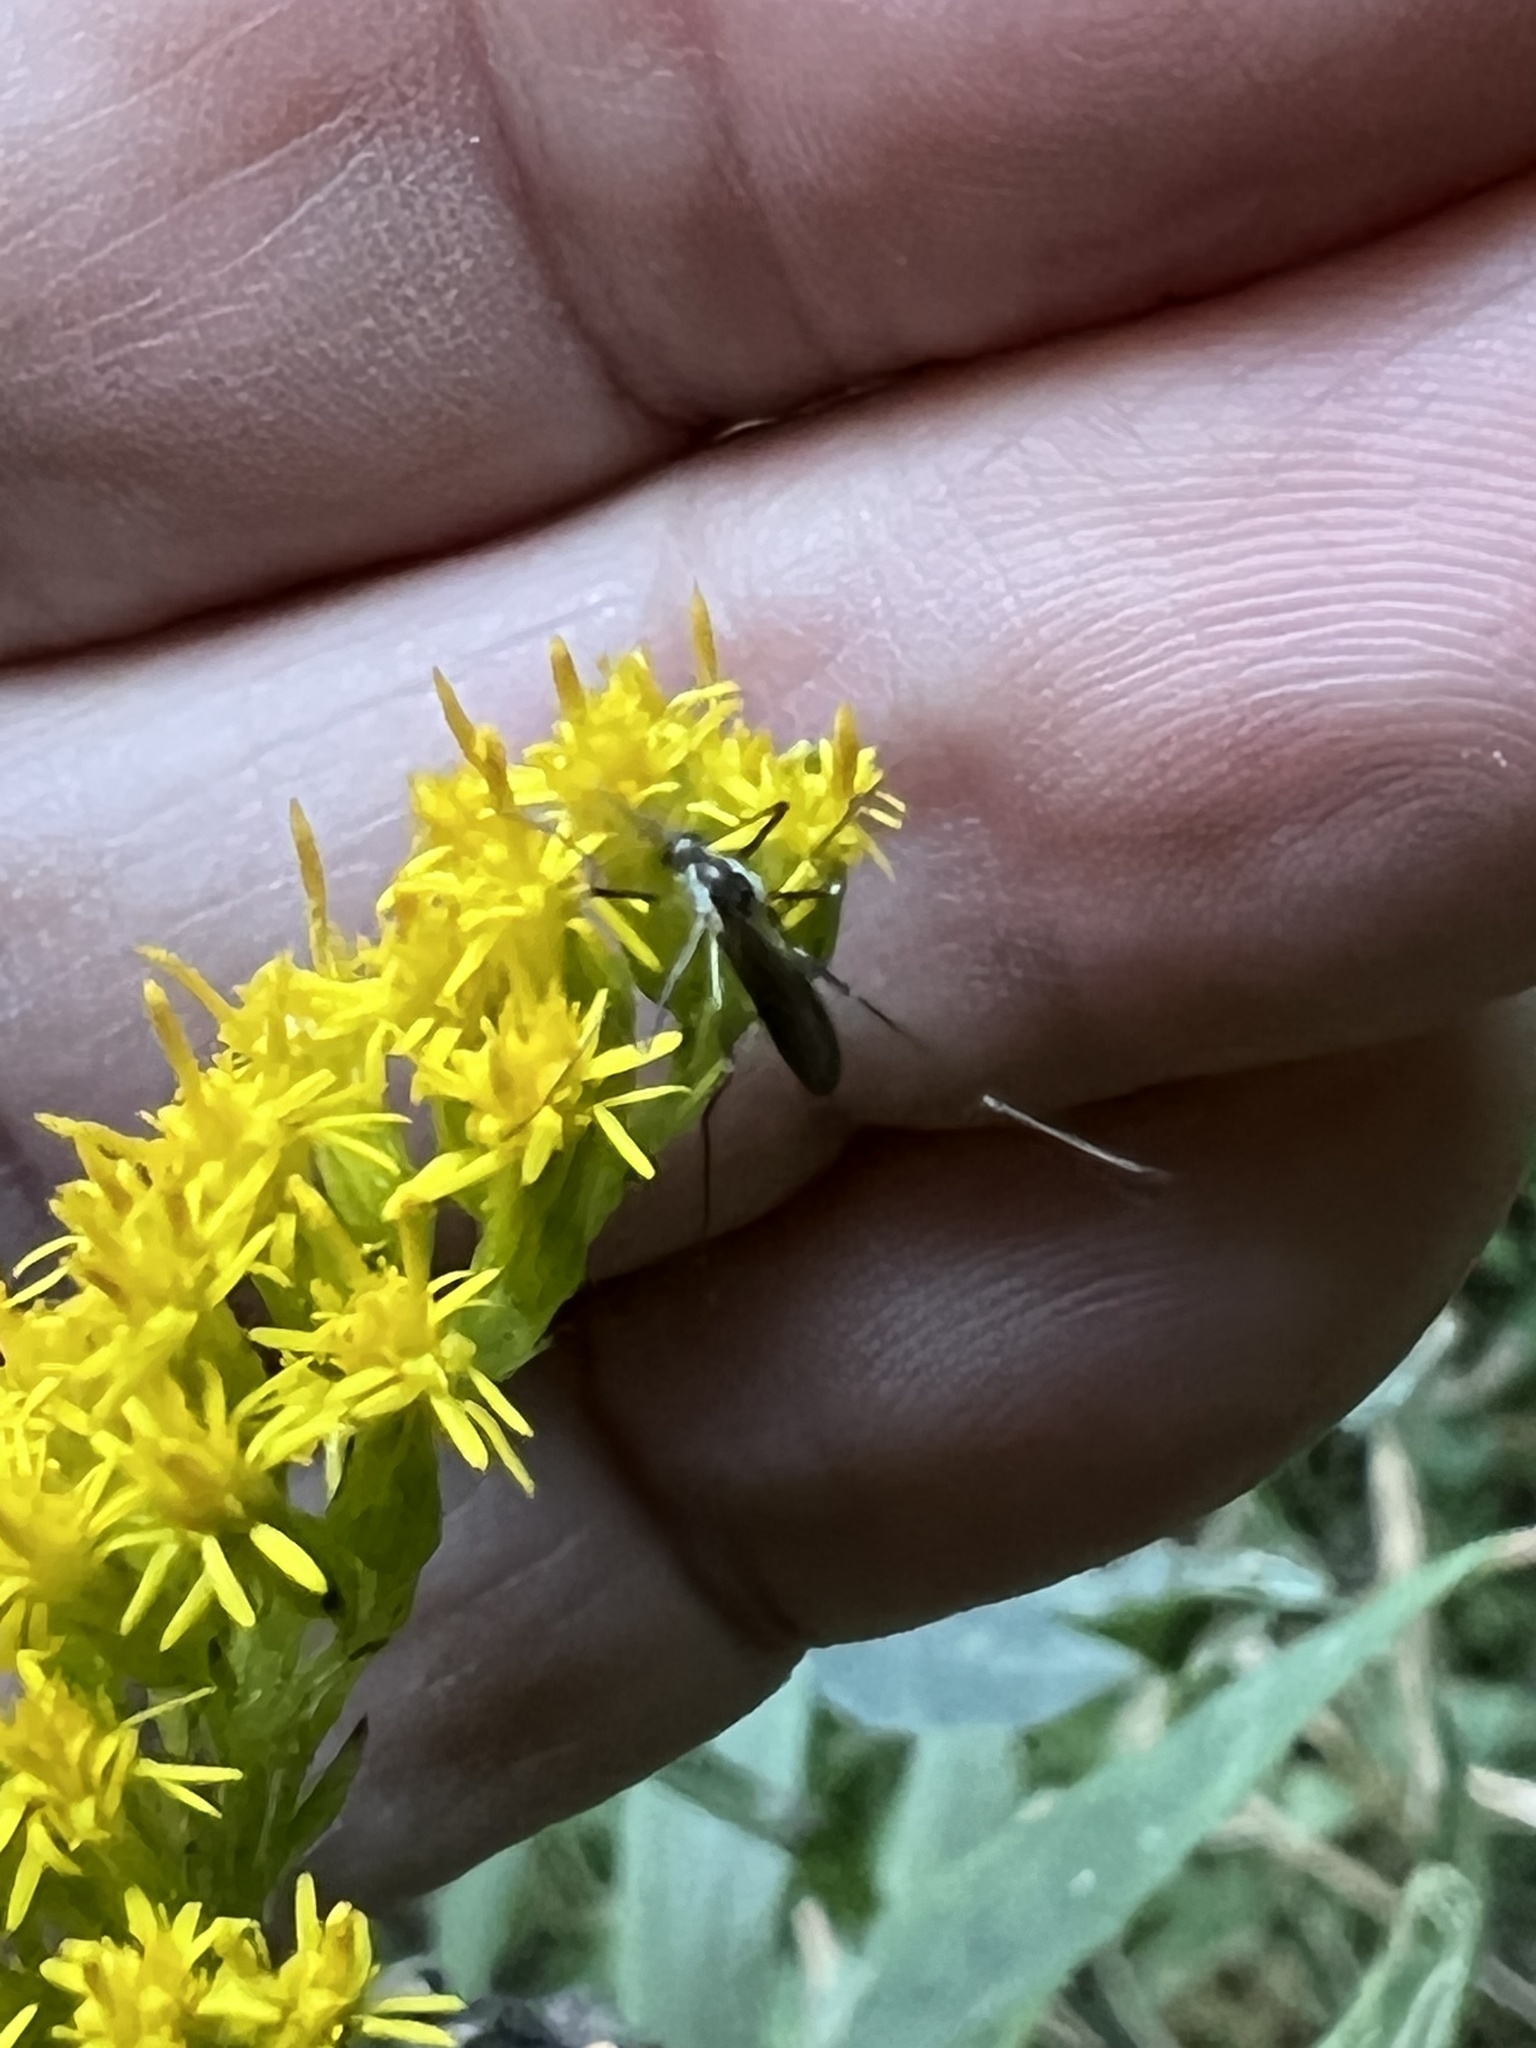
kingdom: Animalia
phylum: Arthropoda
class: Insecta
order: Diptera
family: Culicidae
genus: Aedes
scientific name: Aedes triseriatus
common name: Eastern treehole mosquito
